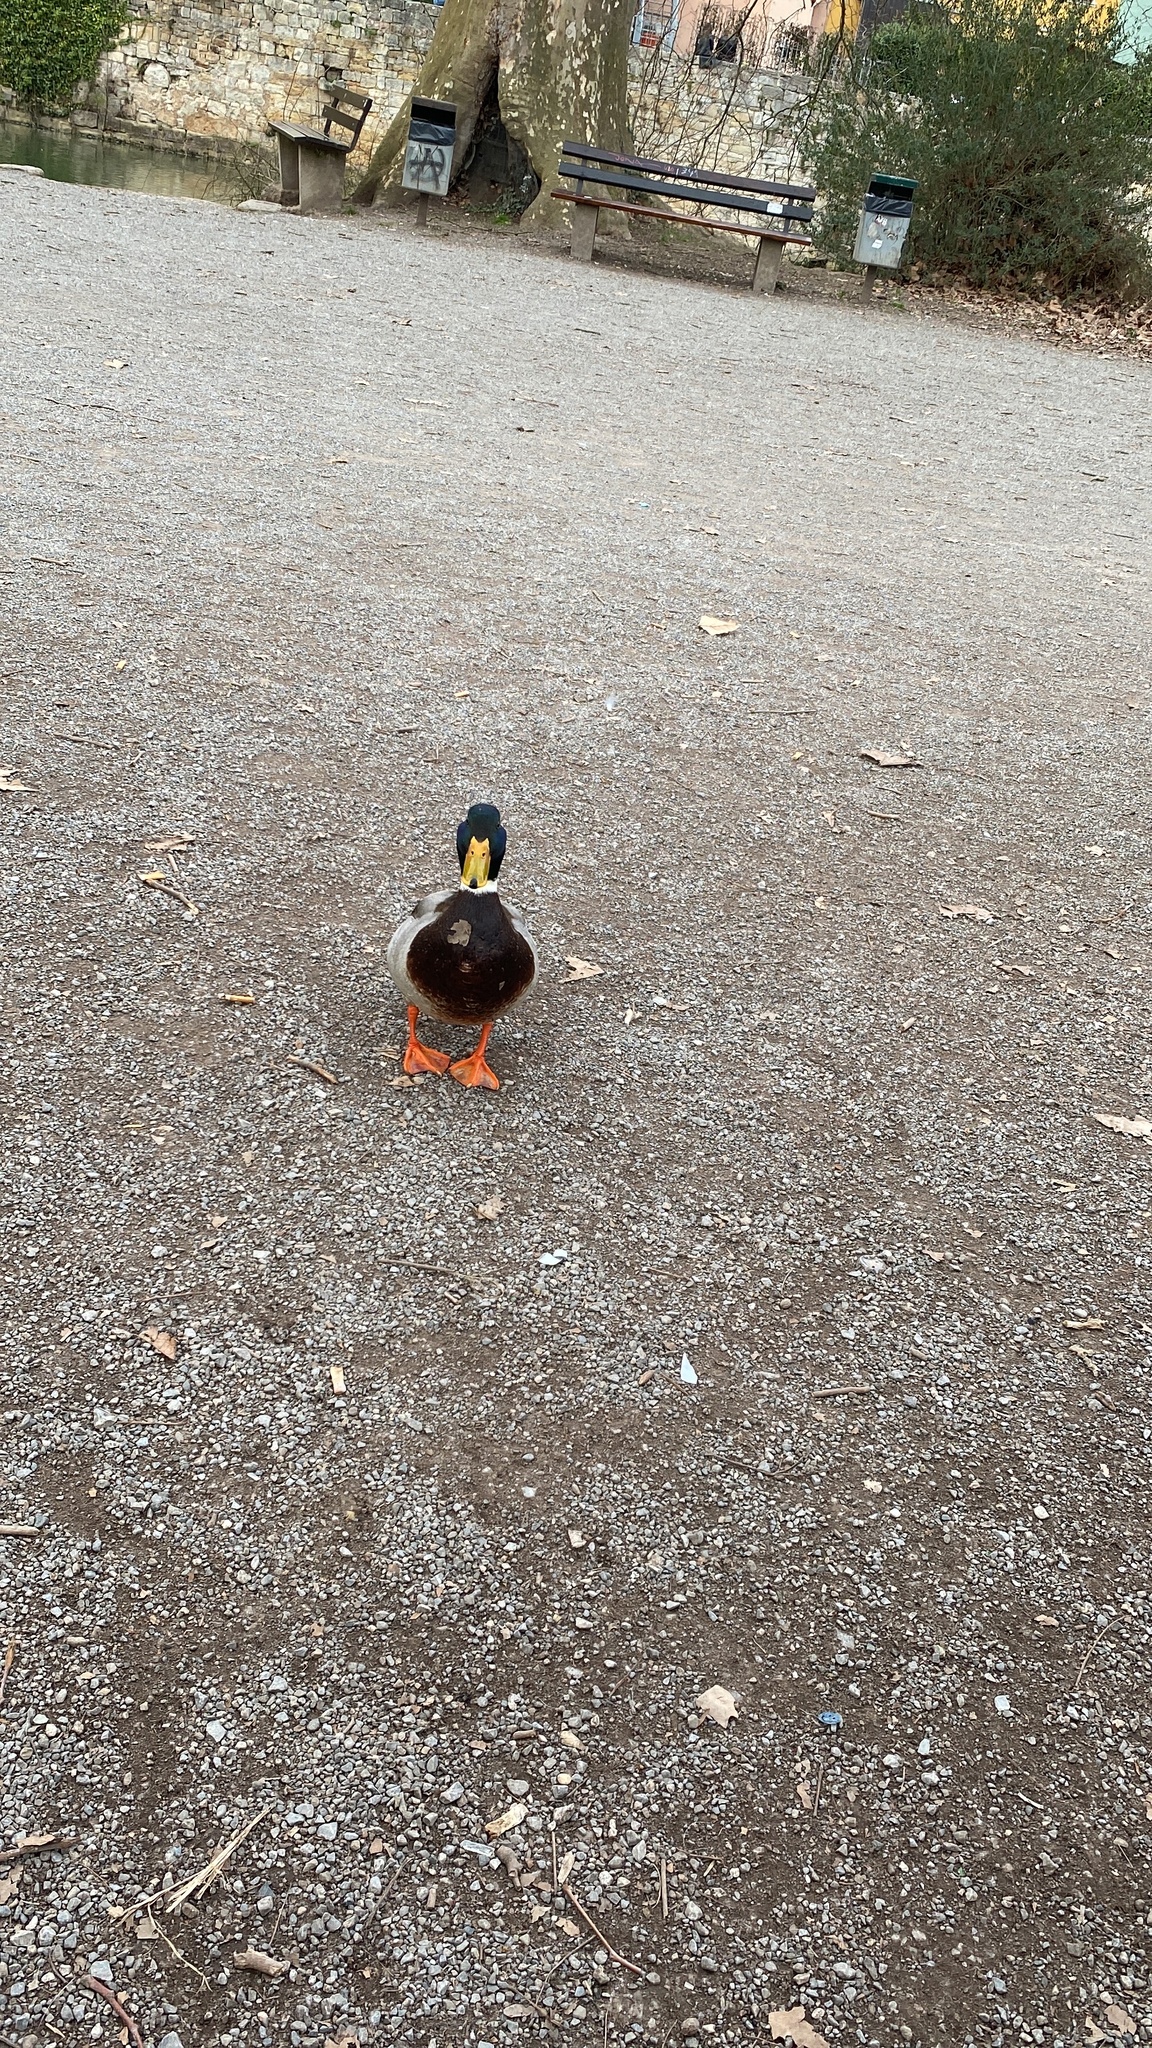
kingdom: Animalia
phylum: Chordata
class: Aves
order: Anseriformes
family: Anatidae
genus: Anas
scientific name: Anas platyrhynchos
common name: Mallard
